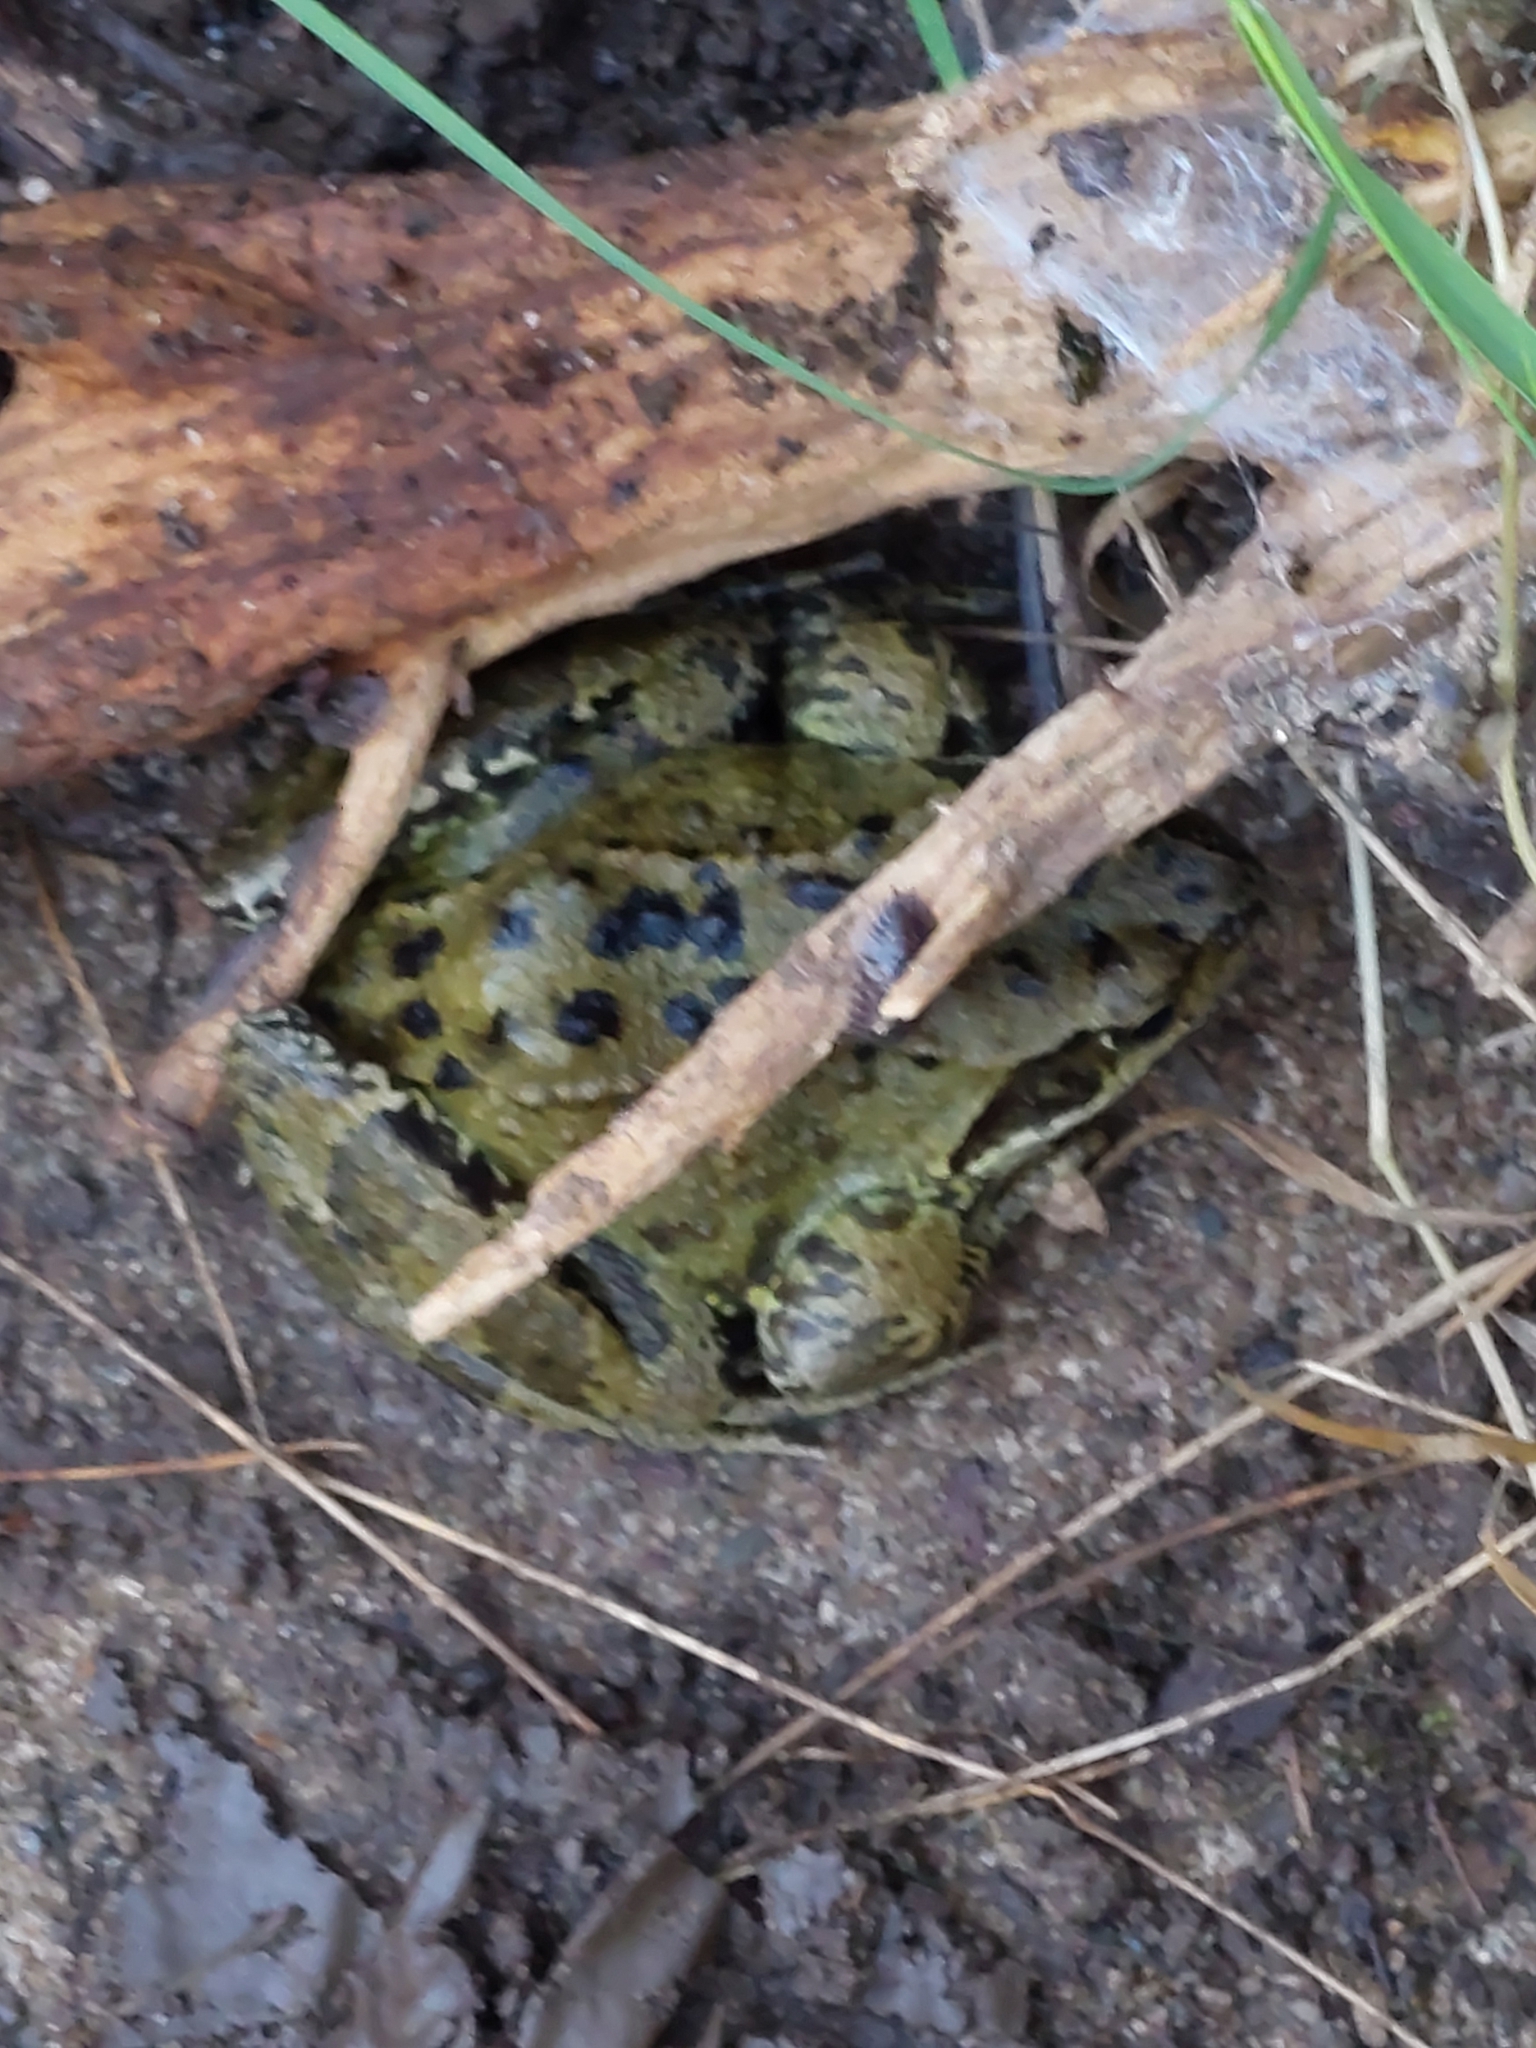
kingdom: Animalia
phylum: Chordata
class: Amphibia
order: Anura
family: Ranidae
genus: Rana
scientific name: Rana temporaria
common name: Common frog
